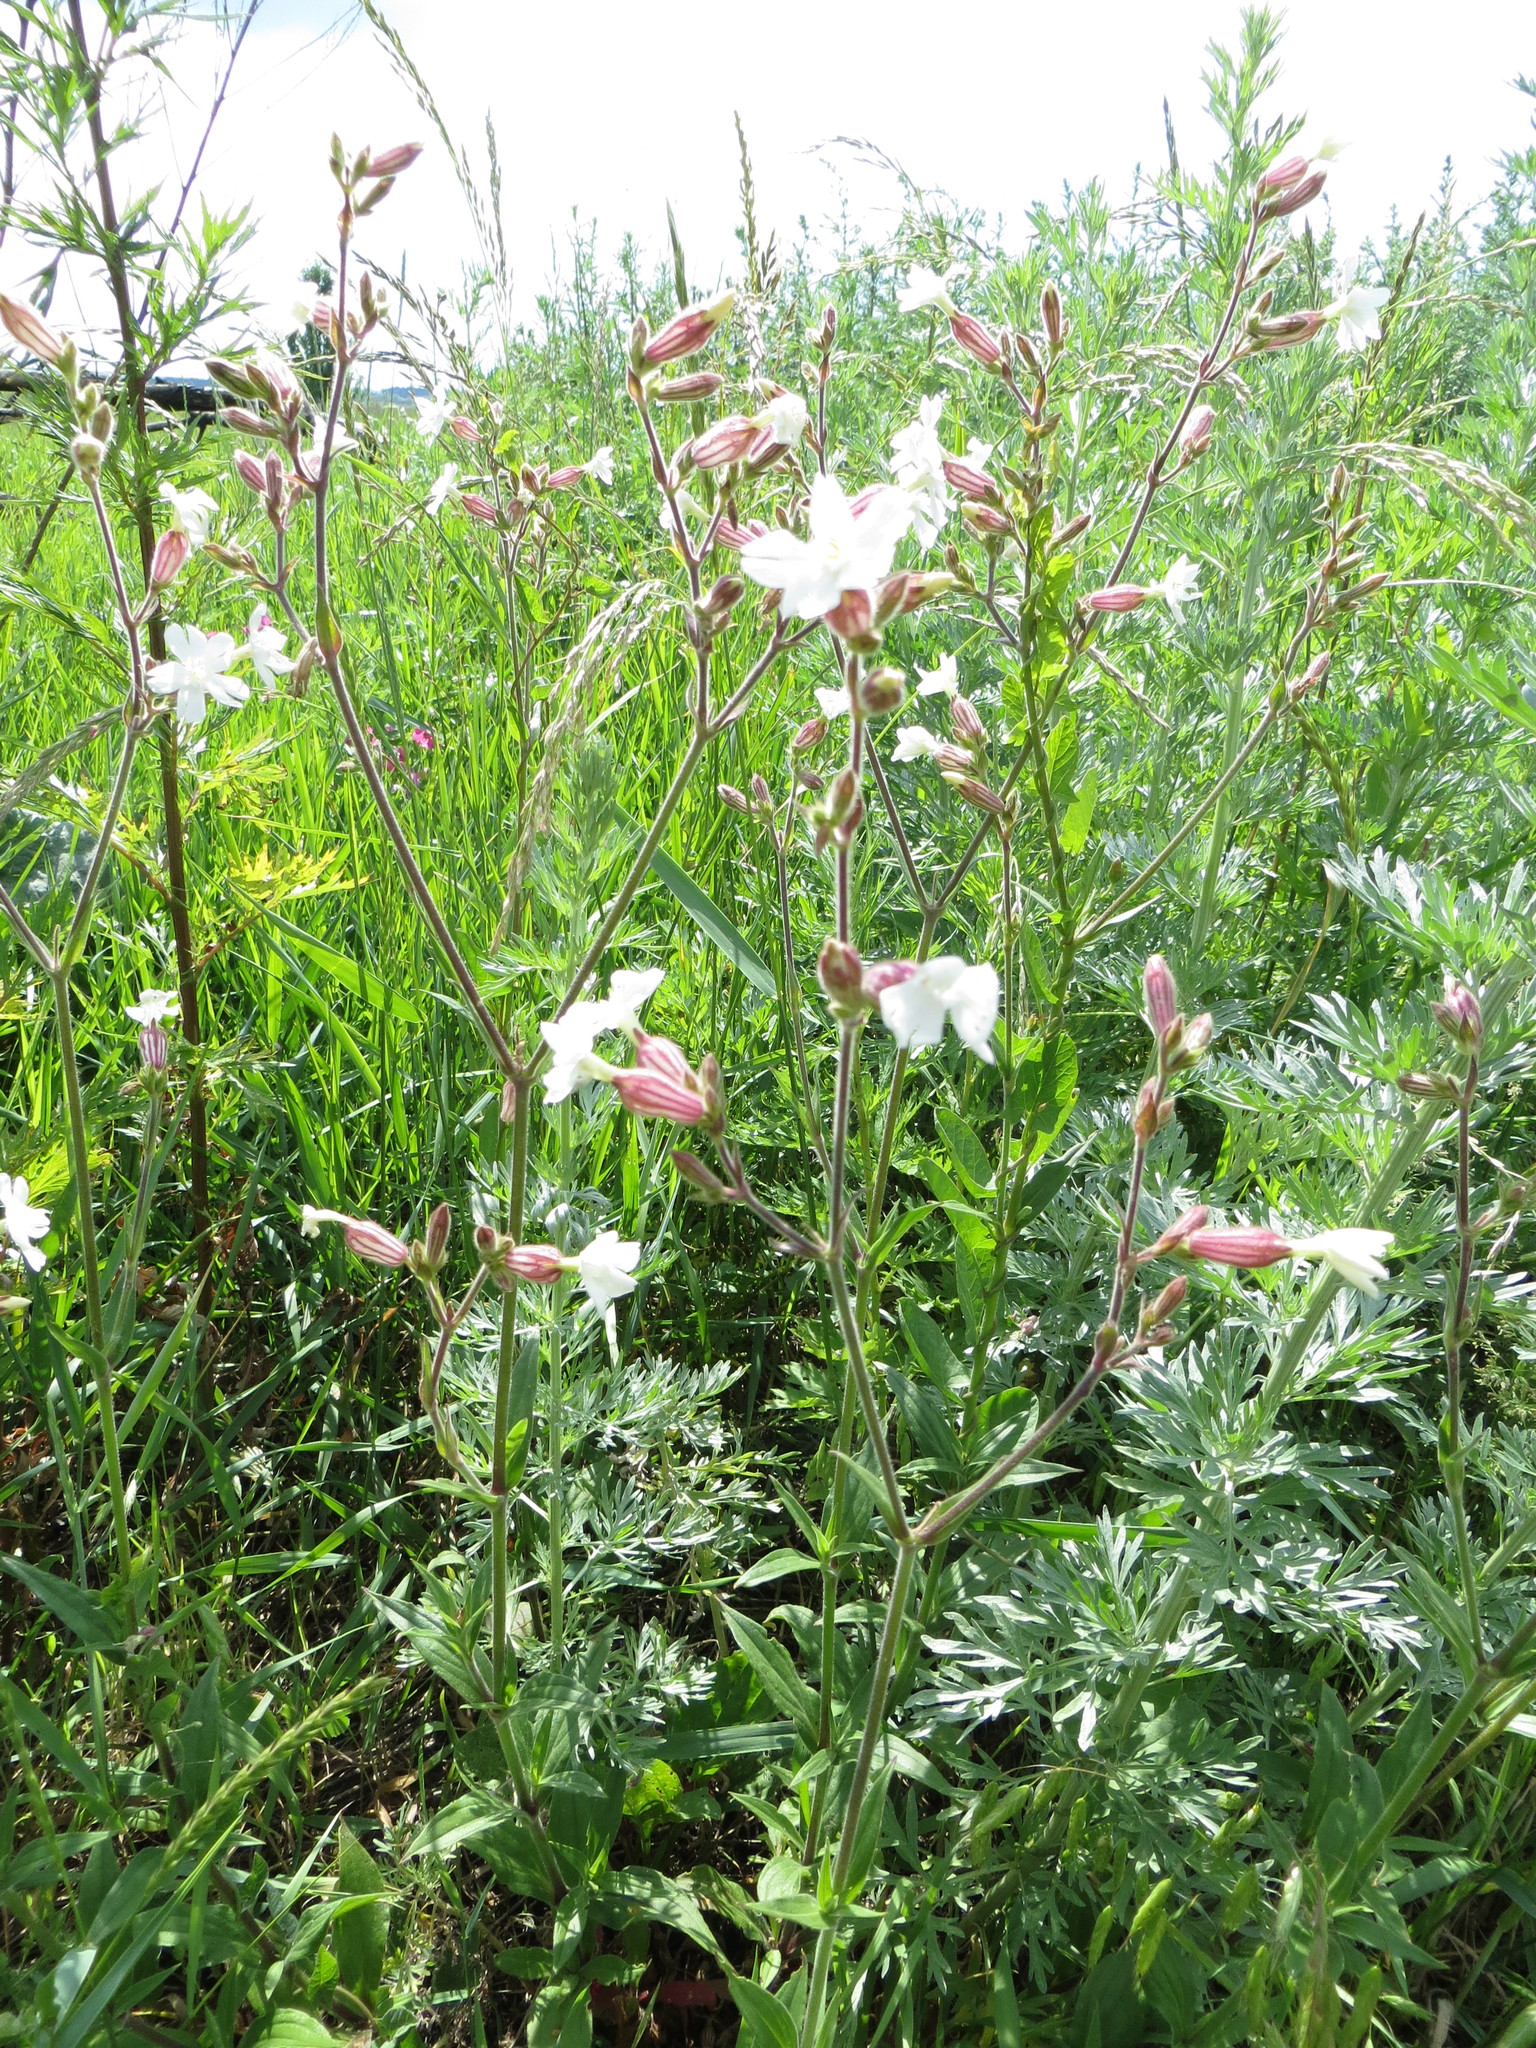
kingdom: Plantae
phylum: Tracheophyta
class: Magnoliopsida
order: Caryophyllales
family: Caryophyllaceae
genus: Silene
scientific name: Silene latifolia
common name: White campion
